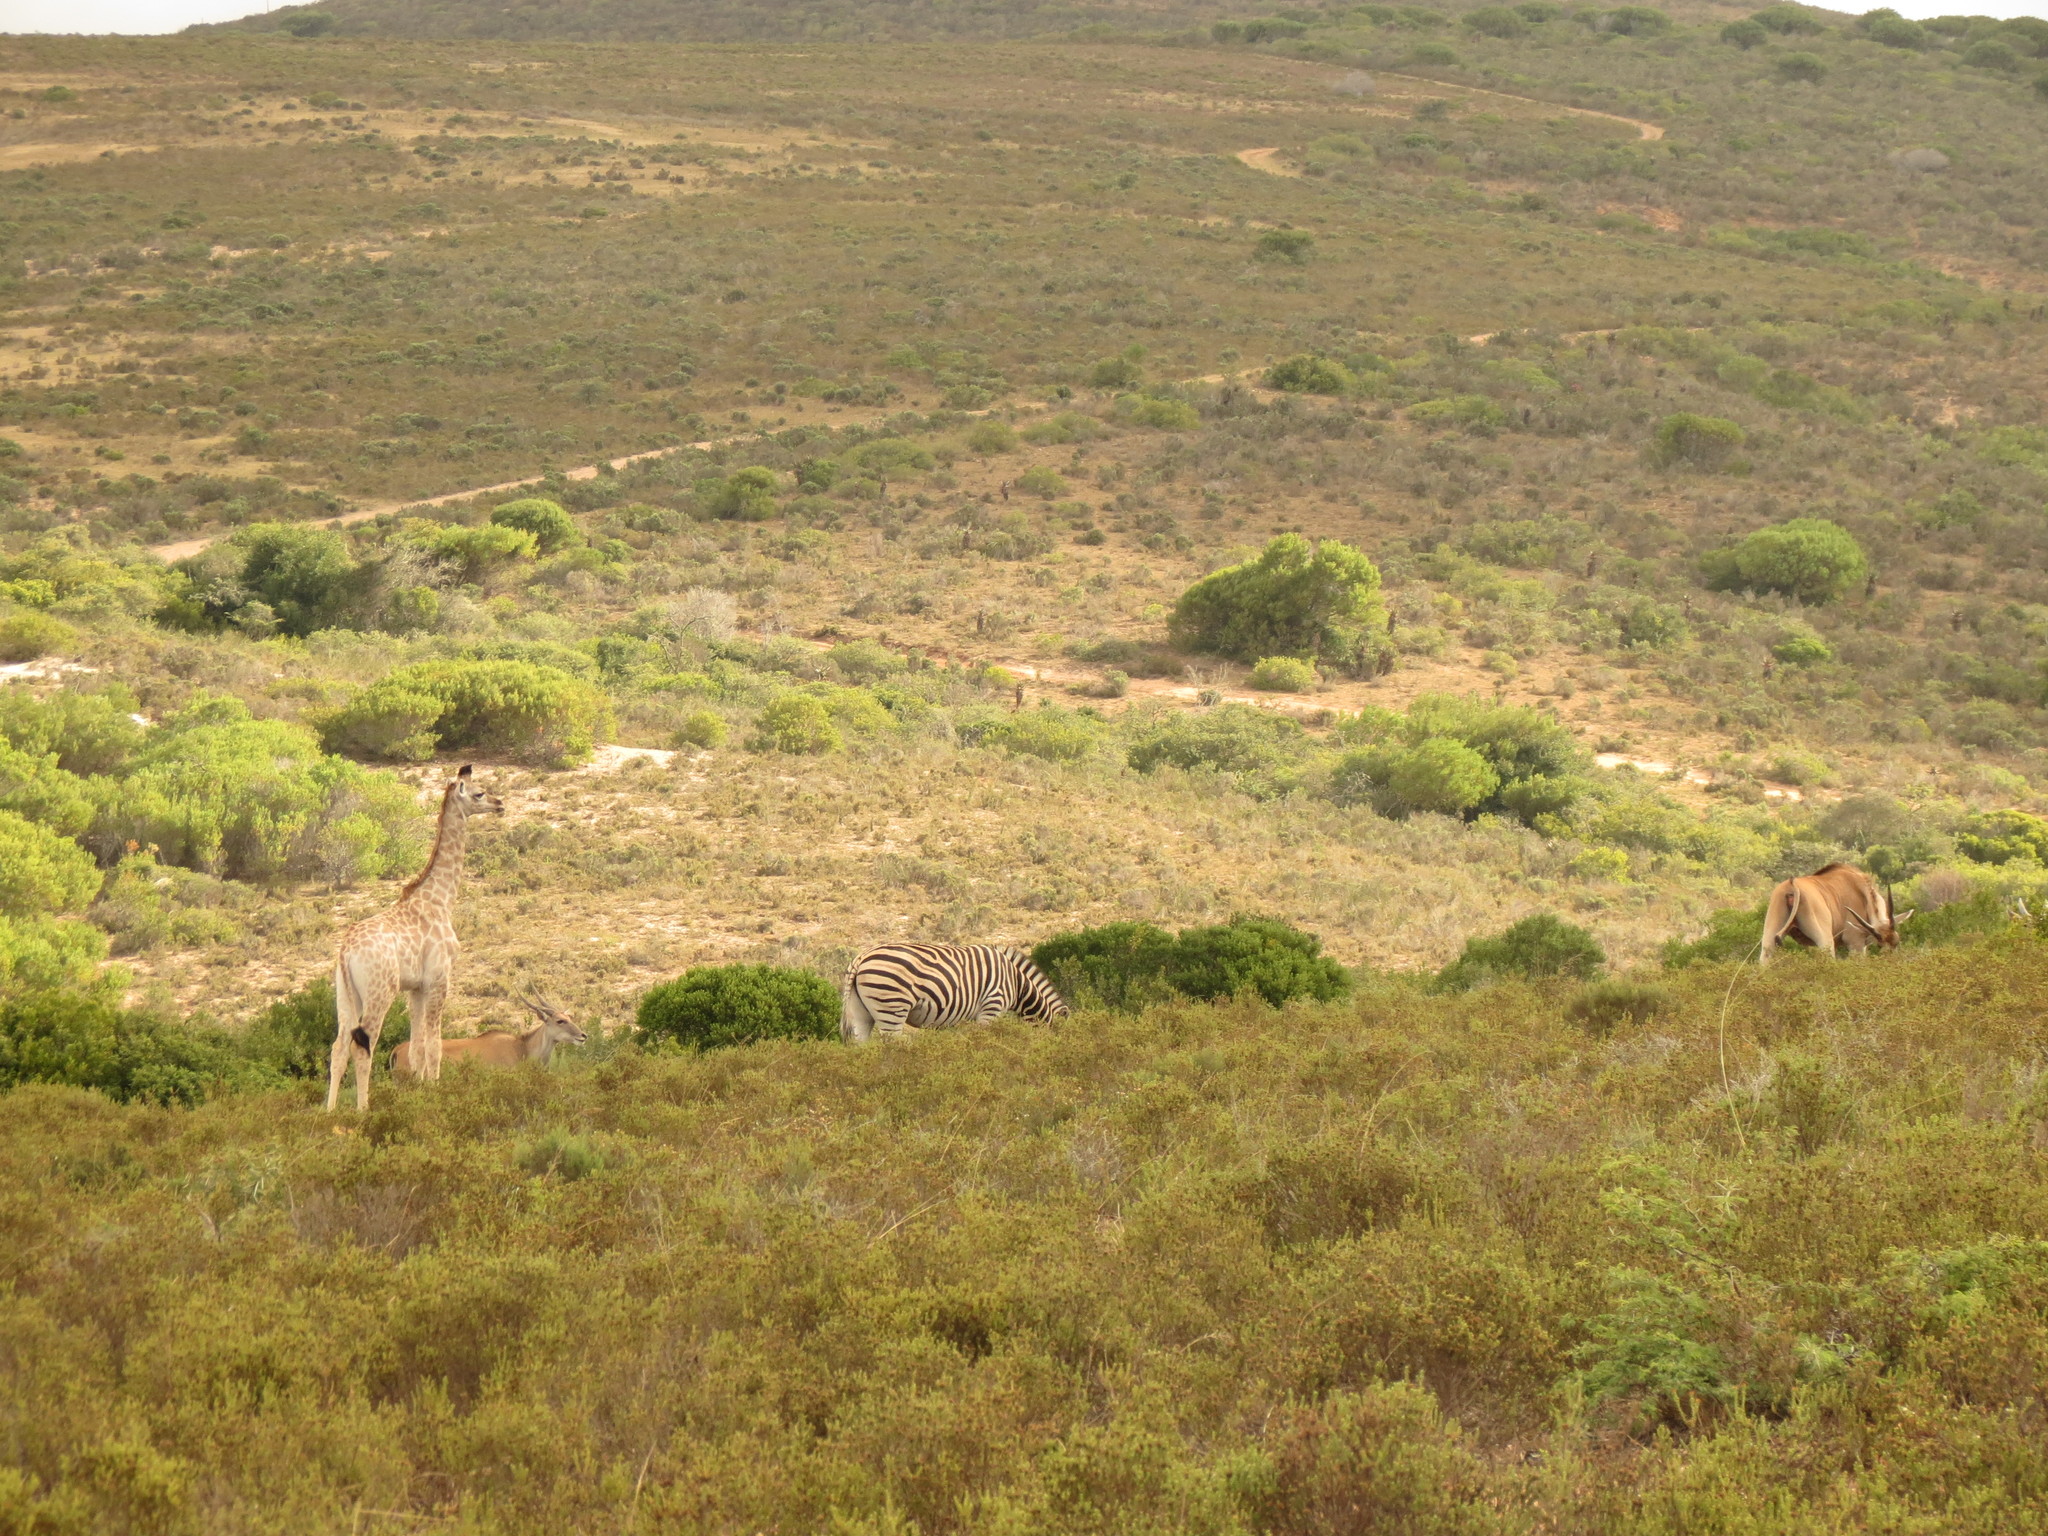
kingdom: Animalia
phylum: Chordata
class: Mammalia
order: Perissodactyla
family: Equidae
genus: Equus
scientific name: Equus quagga
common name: Plains zebra
